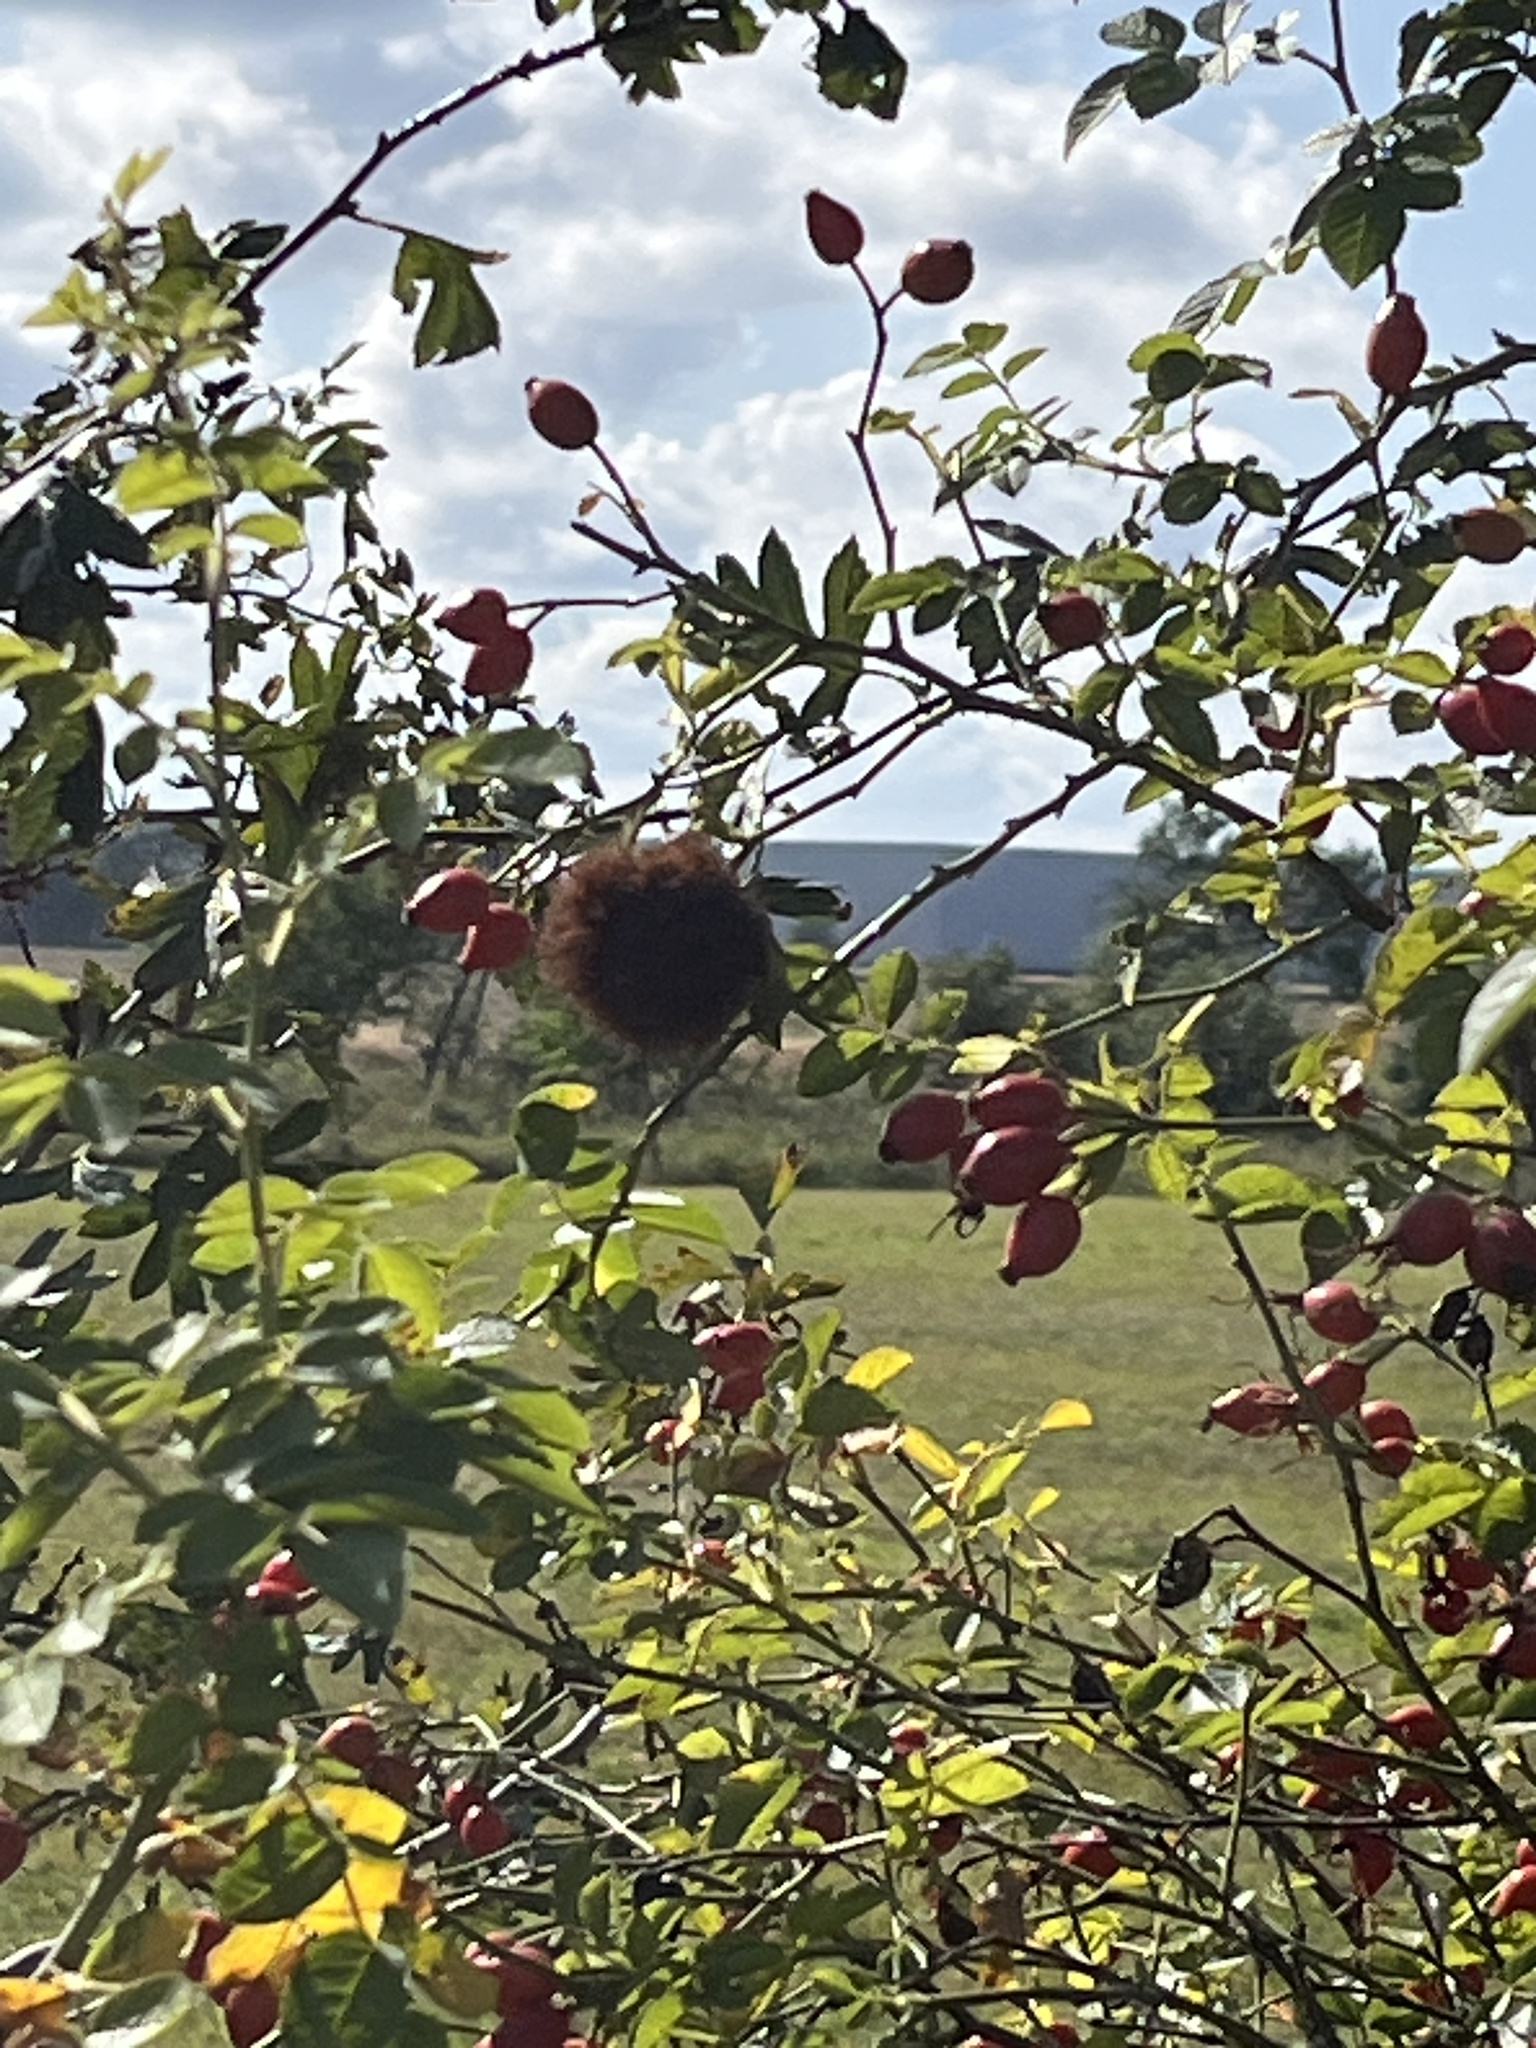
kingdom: Animalia
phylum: Arthropoda
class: Insecta
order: Hymenoptera
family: Cynipidae
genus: Diplolepis
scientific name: Diplolepis rosae
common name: Bedeguar gall
